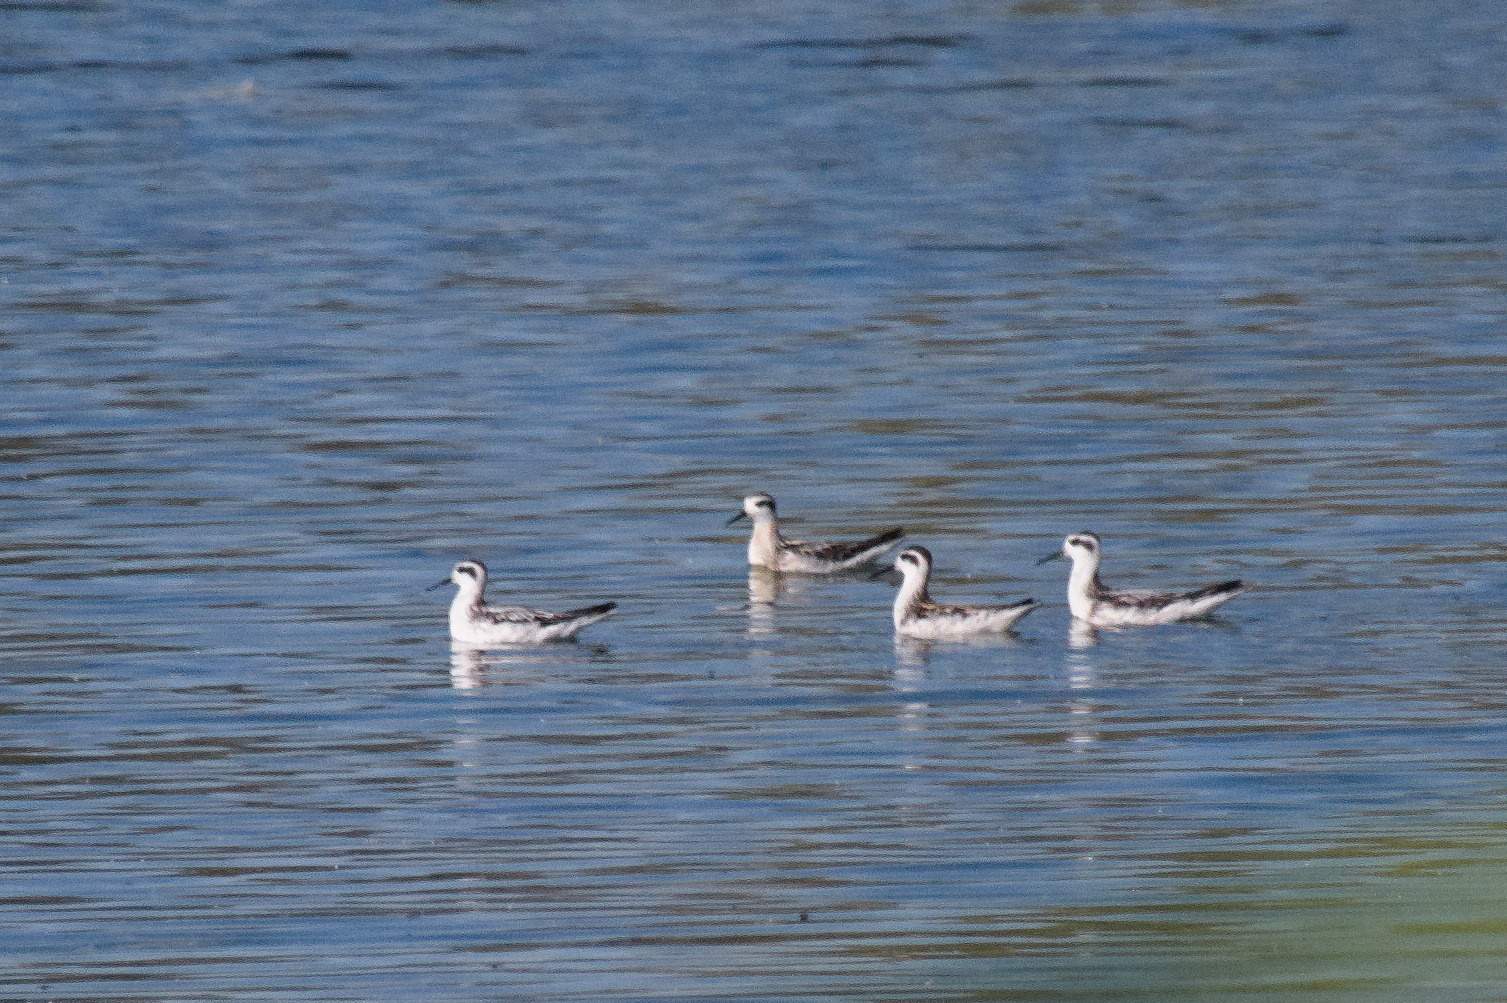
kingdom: Animalia
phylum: Chordata
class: Aves
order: Charadriiformes
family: Scolopacidae
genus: Phalaropus
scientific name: Phalaropus lobatus
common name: Red-necked phalarope
